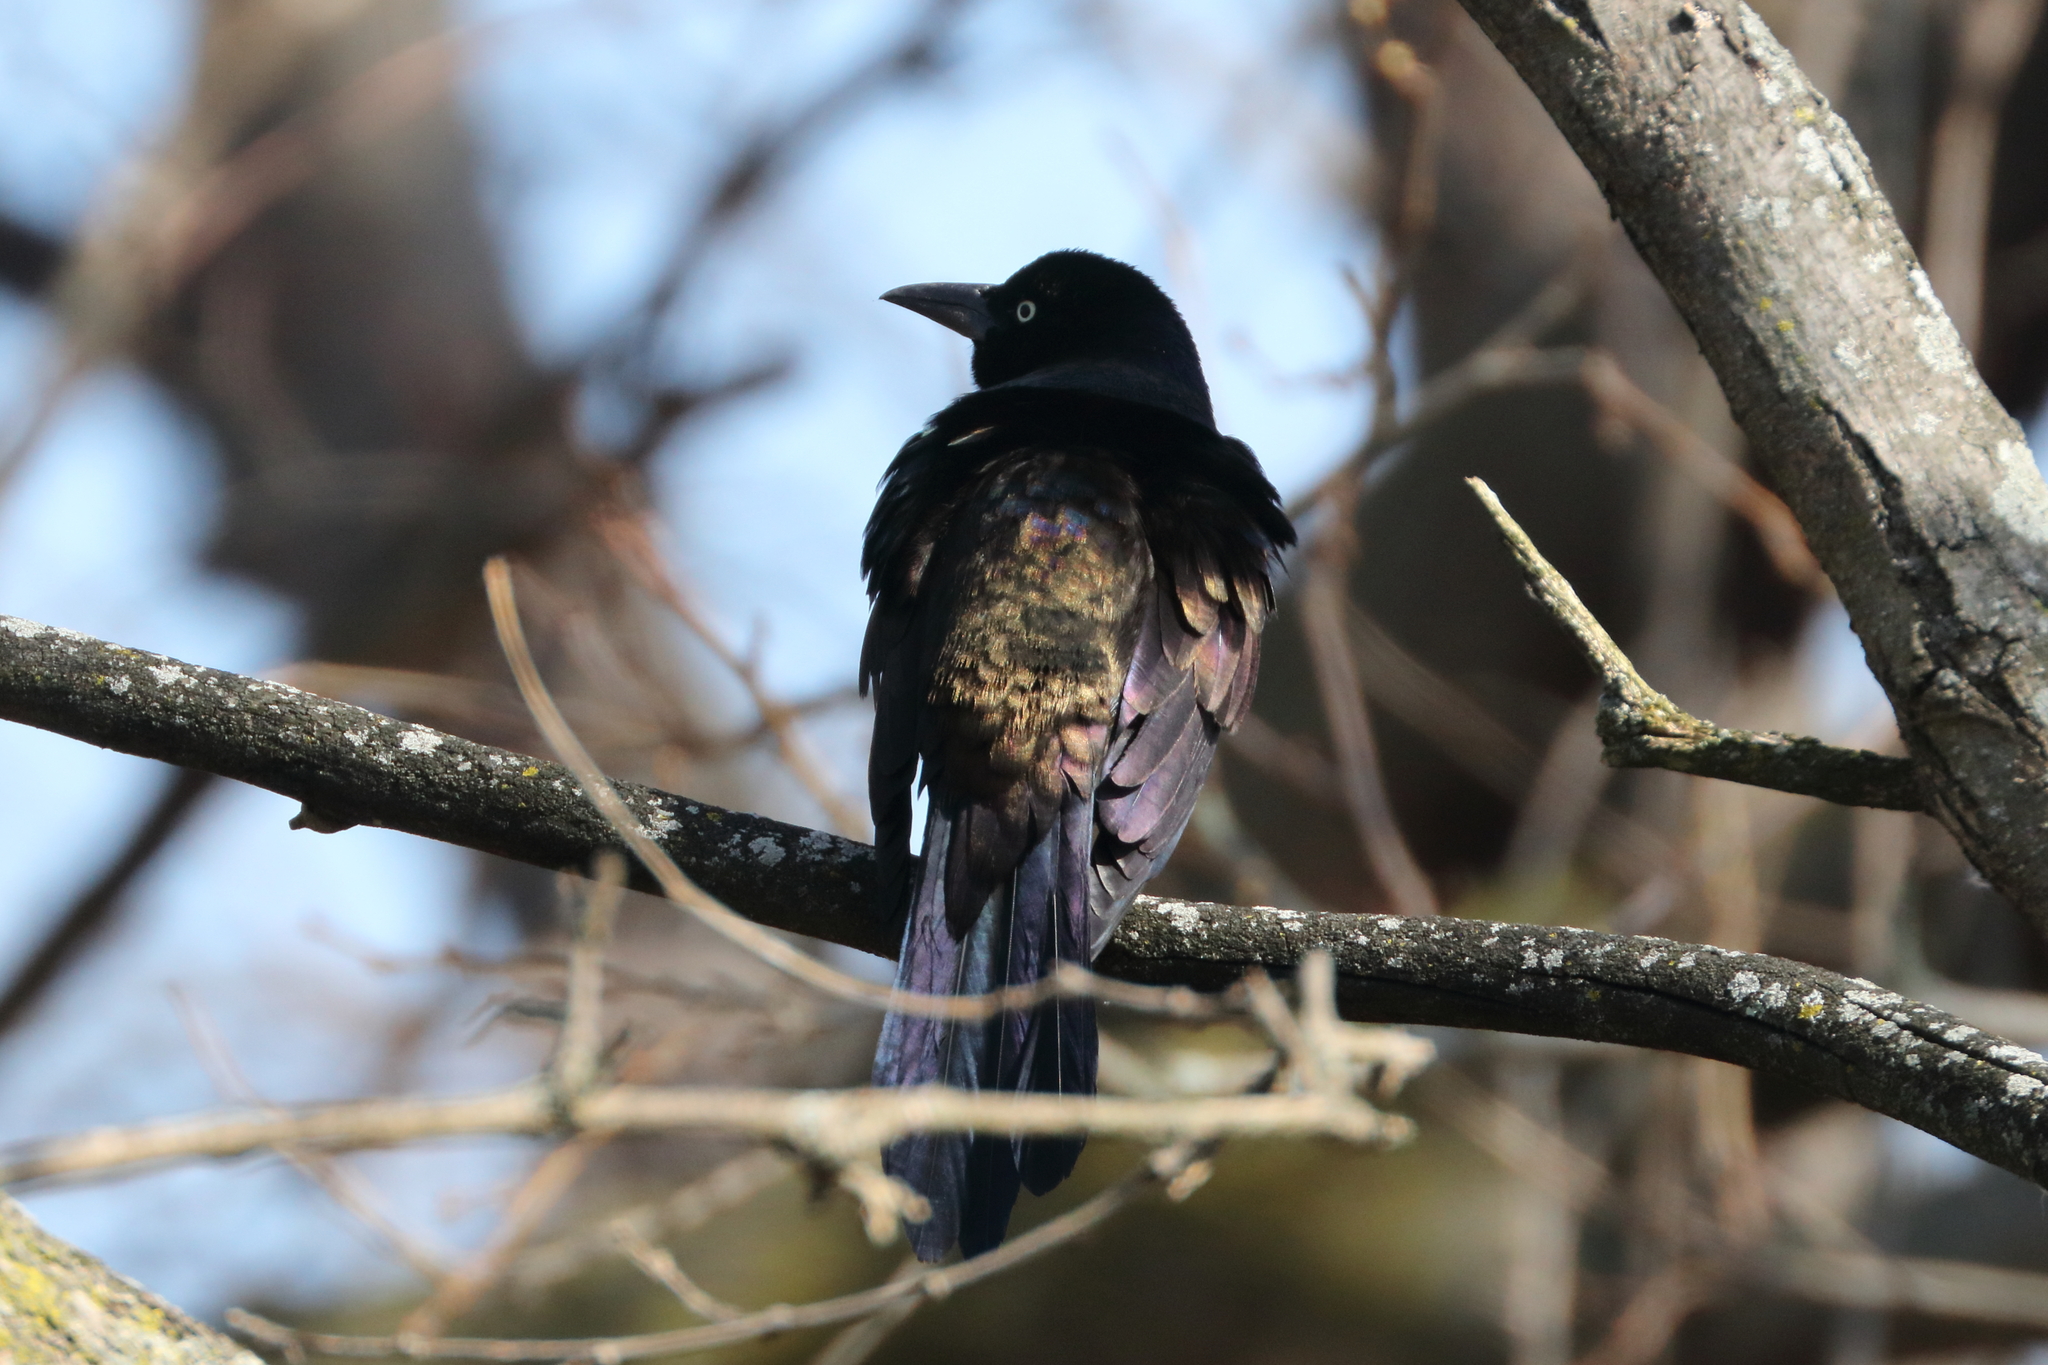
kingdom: Animalia
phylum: Chordata
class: Aves
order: Passeriformes
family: Icteridae
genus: Quiscalus
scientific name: Quiscalus quiscula
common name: Common grackle
